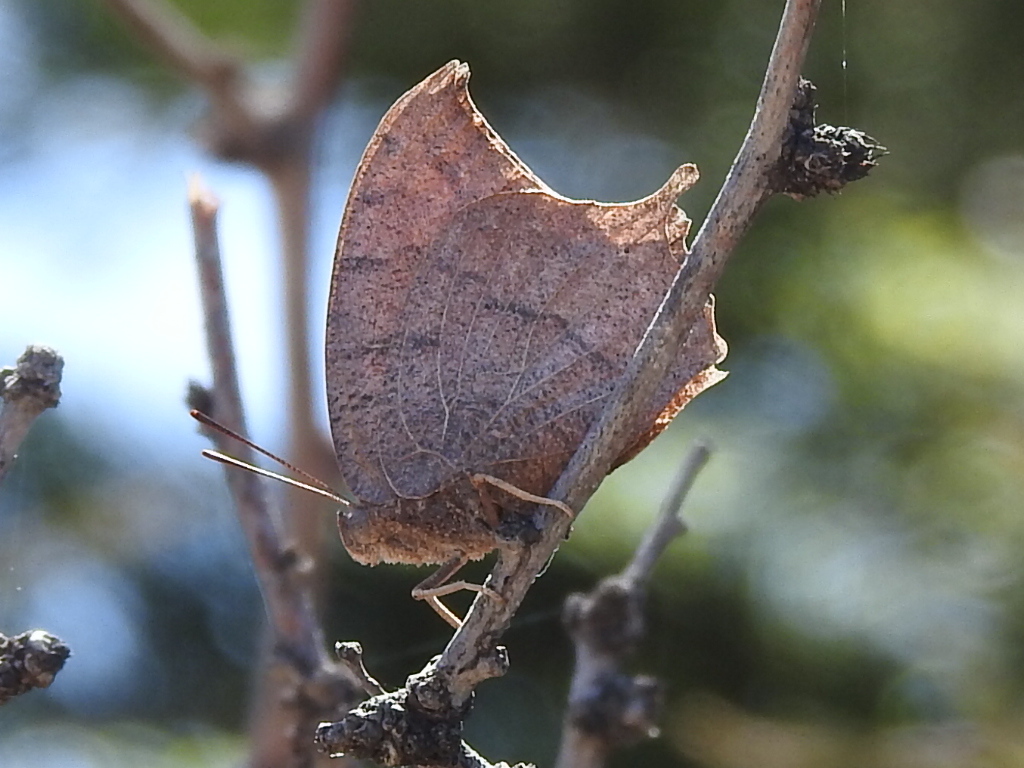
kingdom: Animalia
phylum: Arthropoda
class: Insecta
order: Lepidoptera
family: Nymphalidae
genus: Anaea
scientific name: Anaea andria
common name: Goatweed leafwing
